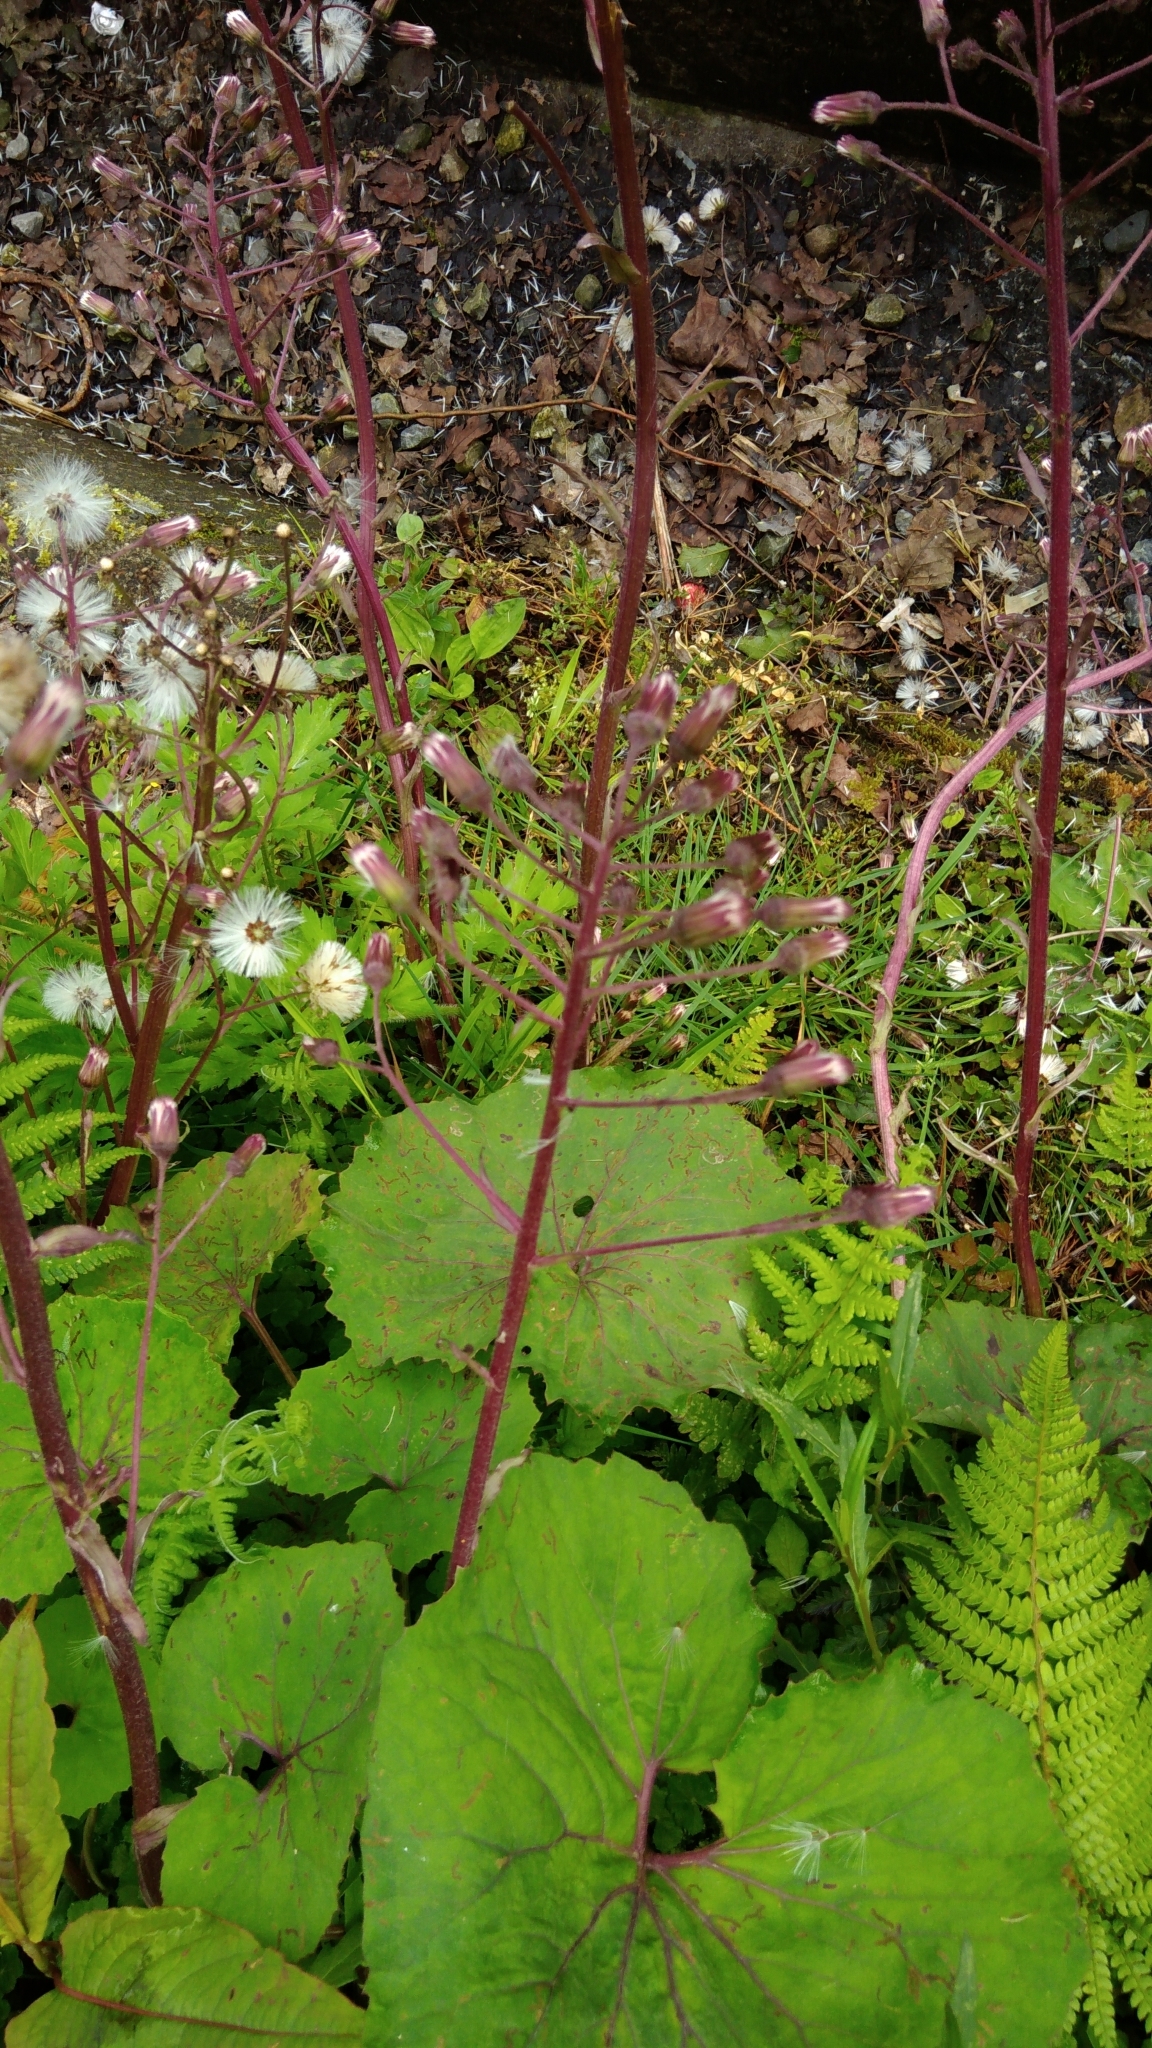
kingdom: Plantae
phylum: Tracheophyta
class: Magnoliopsida
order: Asterales
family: Asteraceae
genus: Petasites
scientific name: Petasites formosanus
